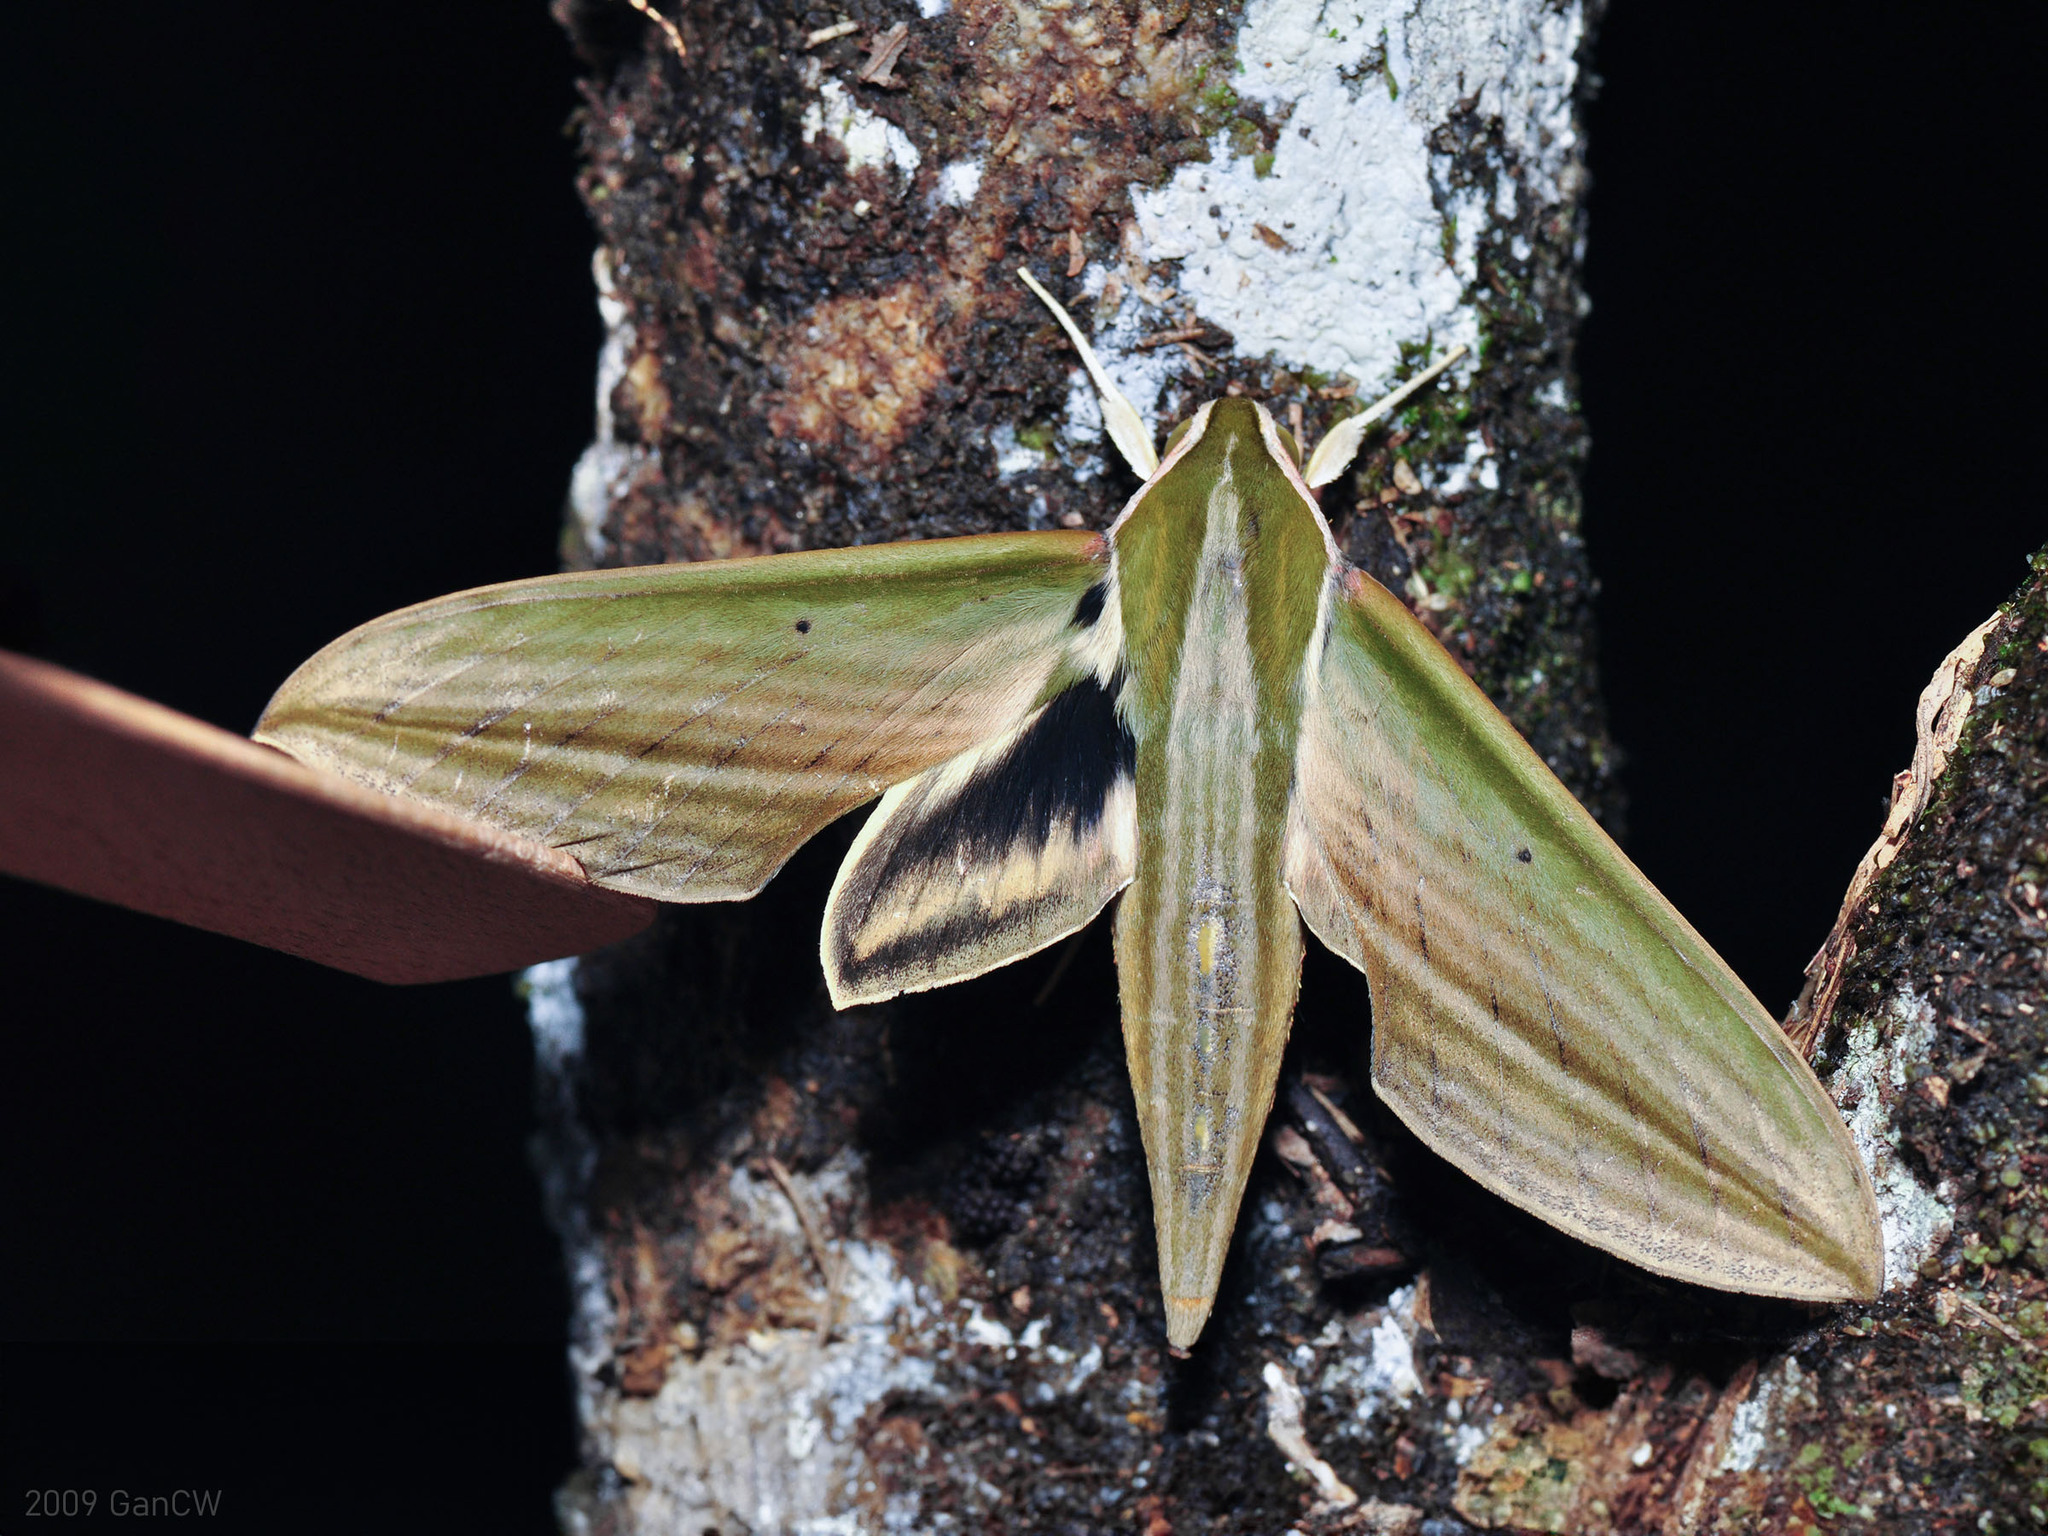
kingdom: Animalia
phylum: Arthropoda
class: Insecta
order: Lepidoptera
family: Sphingidae
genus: Cechetra
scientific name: Cechetra lineosa
